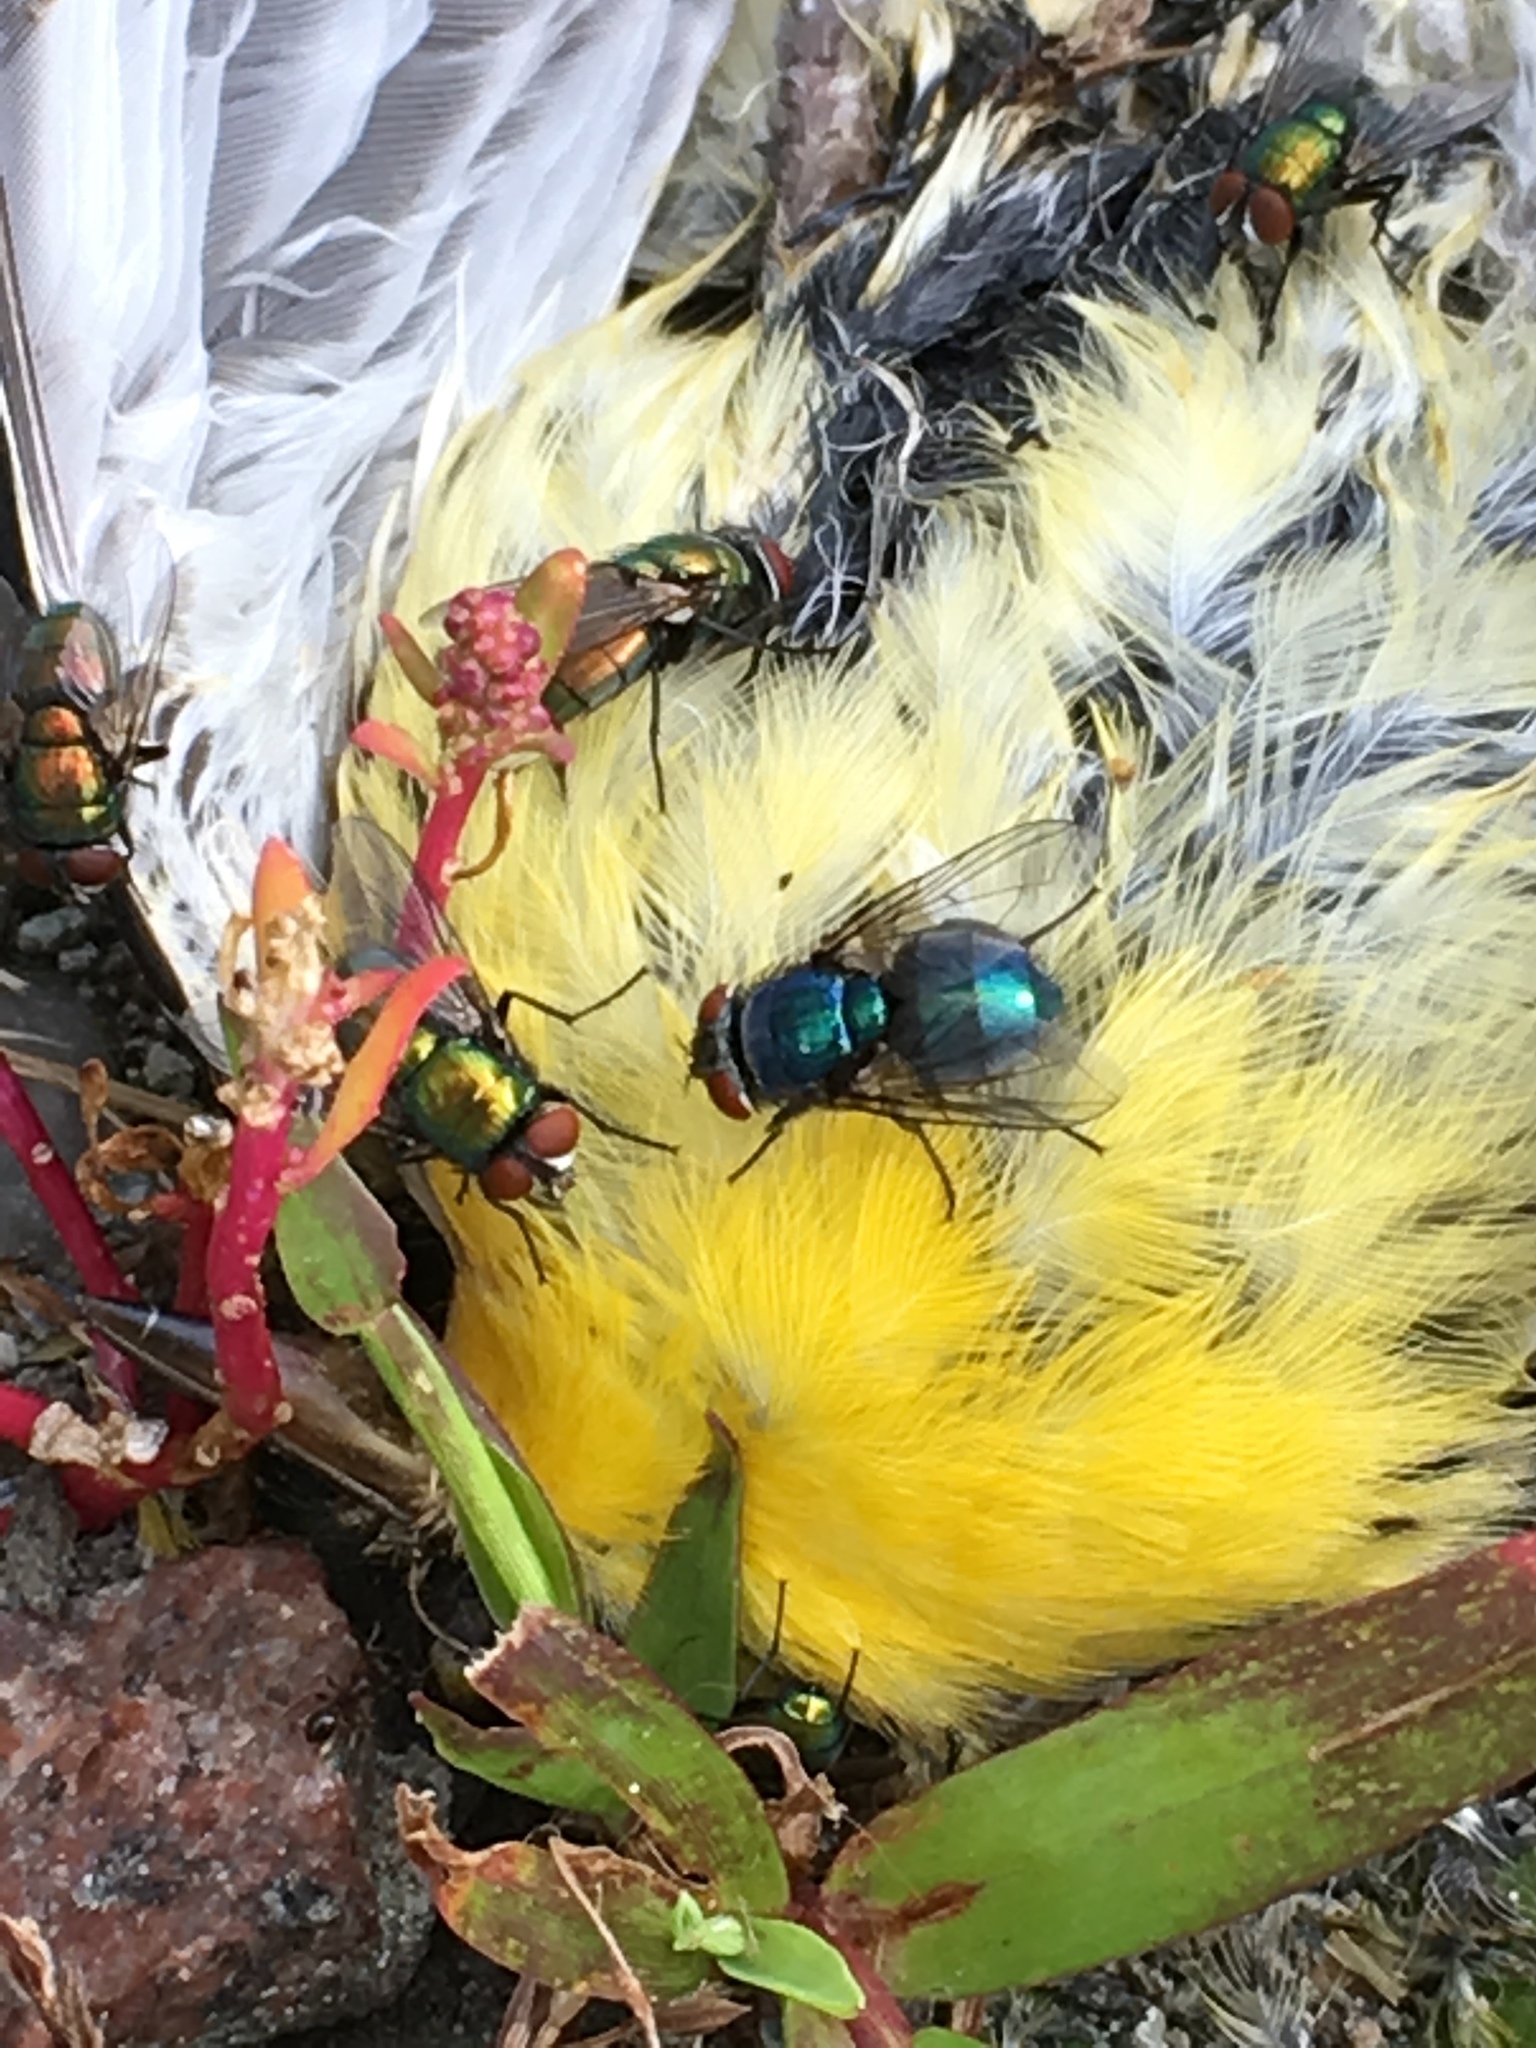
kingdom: Animalia
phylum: Arthropoda
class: Insecta
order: Diptera
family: Calliphoridae
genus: Lucilia
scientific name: Lucilia sericata
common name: Blow fly
